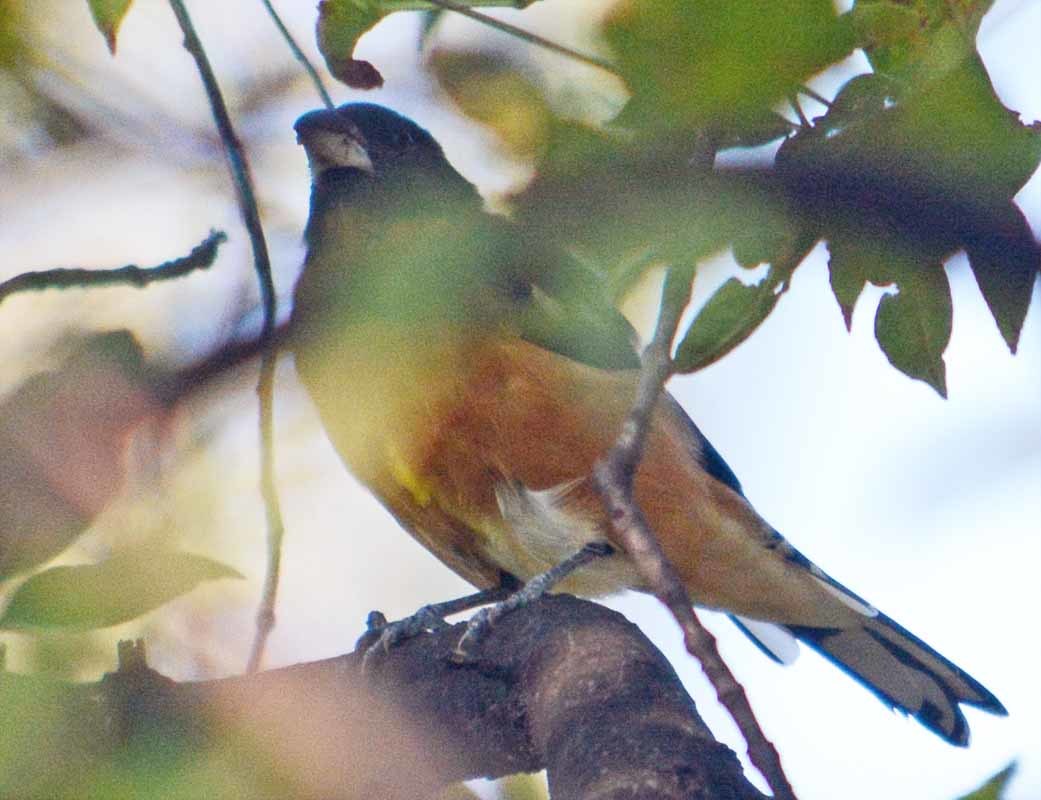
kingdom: Animalia
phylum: Chordata
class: Aves
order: Passeriformes
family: Cardinalidae
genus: Pheucticus
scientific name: Pheucticus melanocephalus
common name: Black-headed grosbeak
